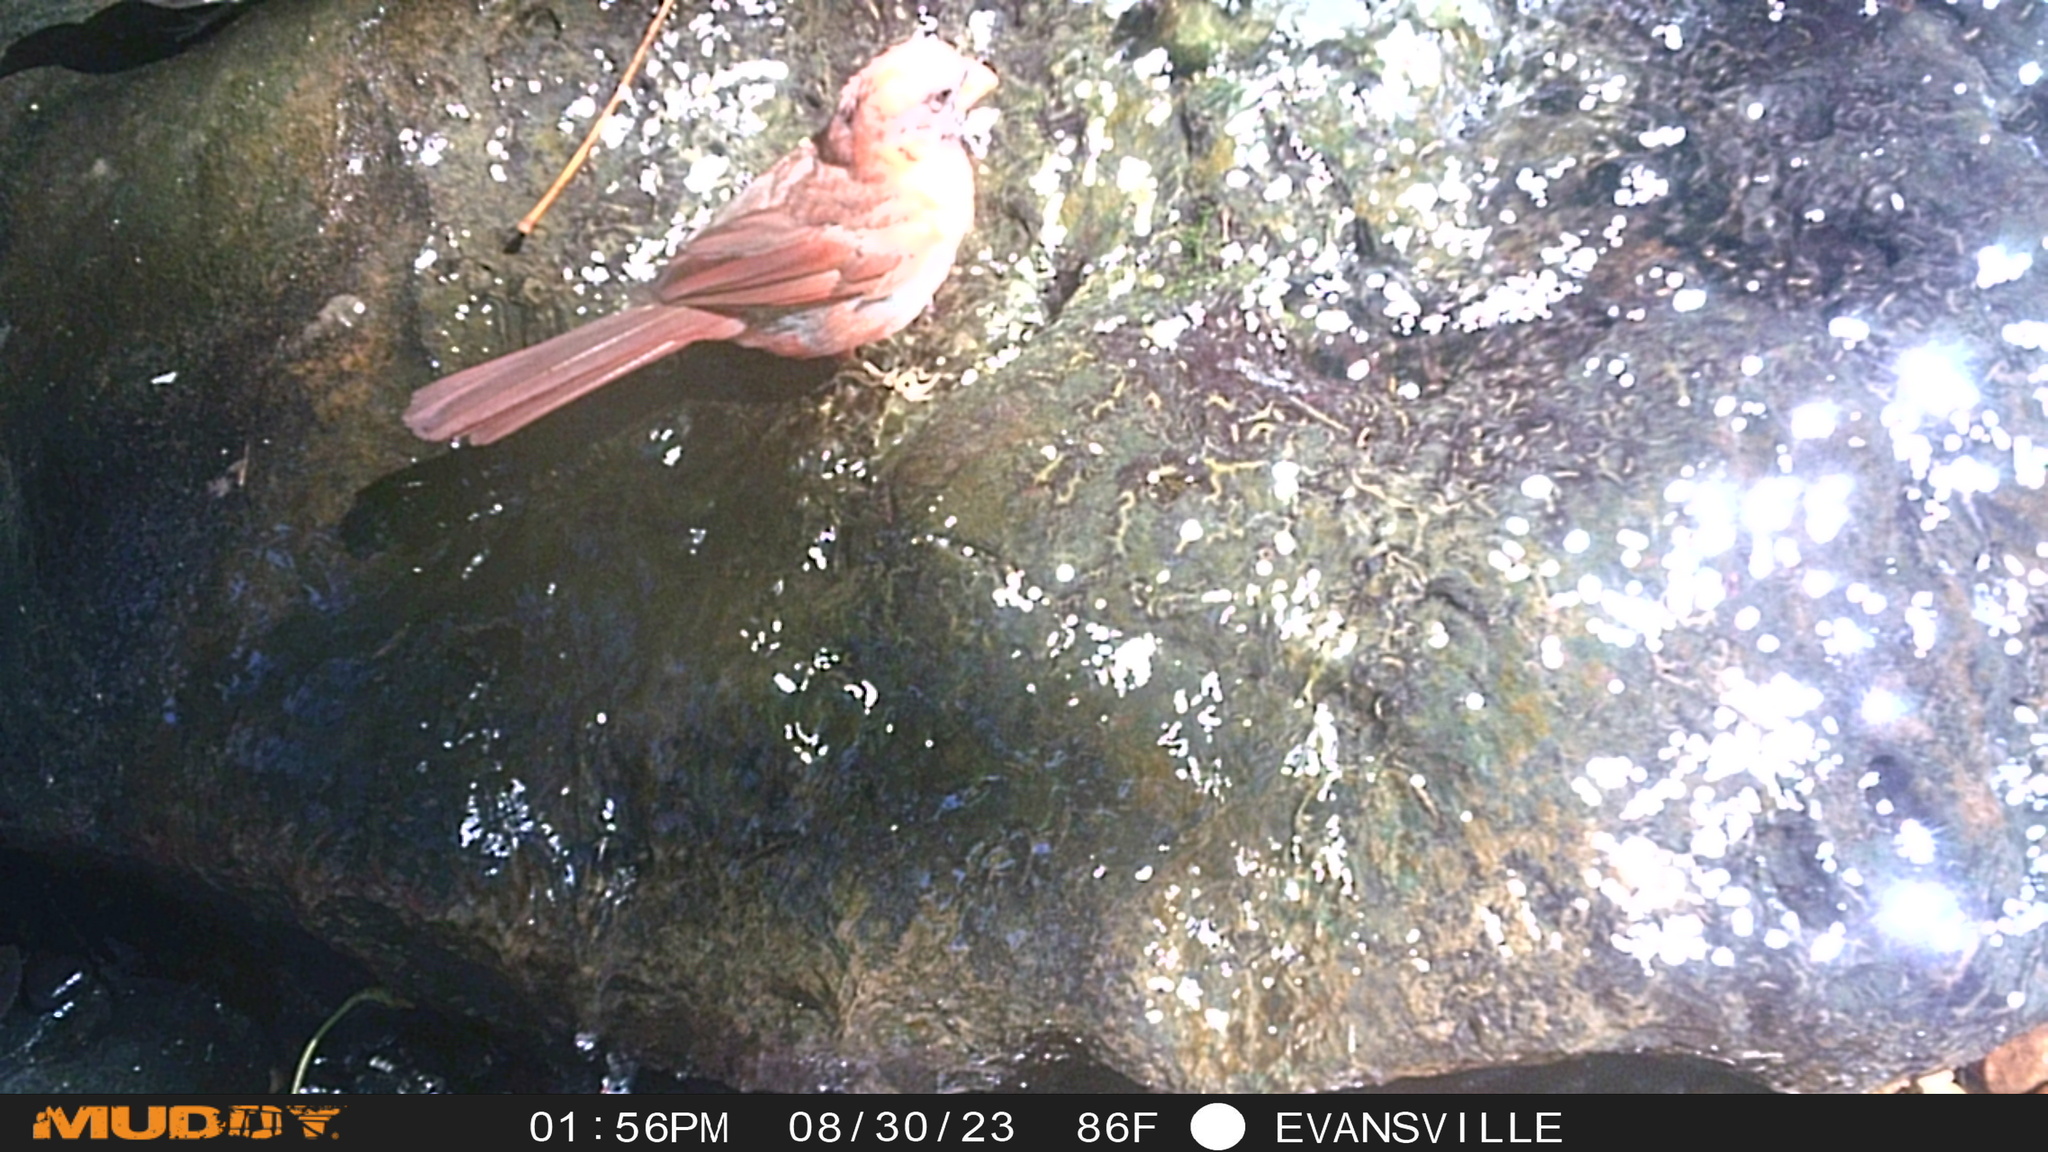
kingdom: Animalia
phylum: Chordata
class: Aves
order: Passeriformes
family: Cardinalidae
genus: Cardinalis
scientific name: Cardinalis cardinalis
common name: Northern cardinal
